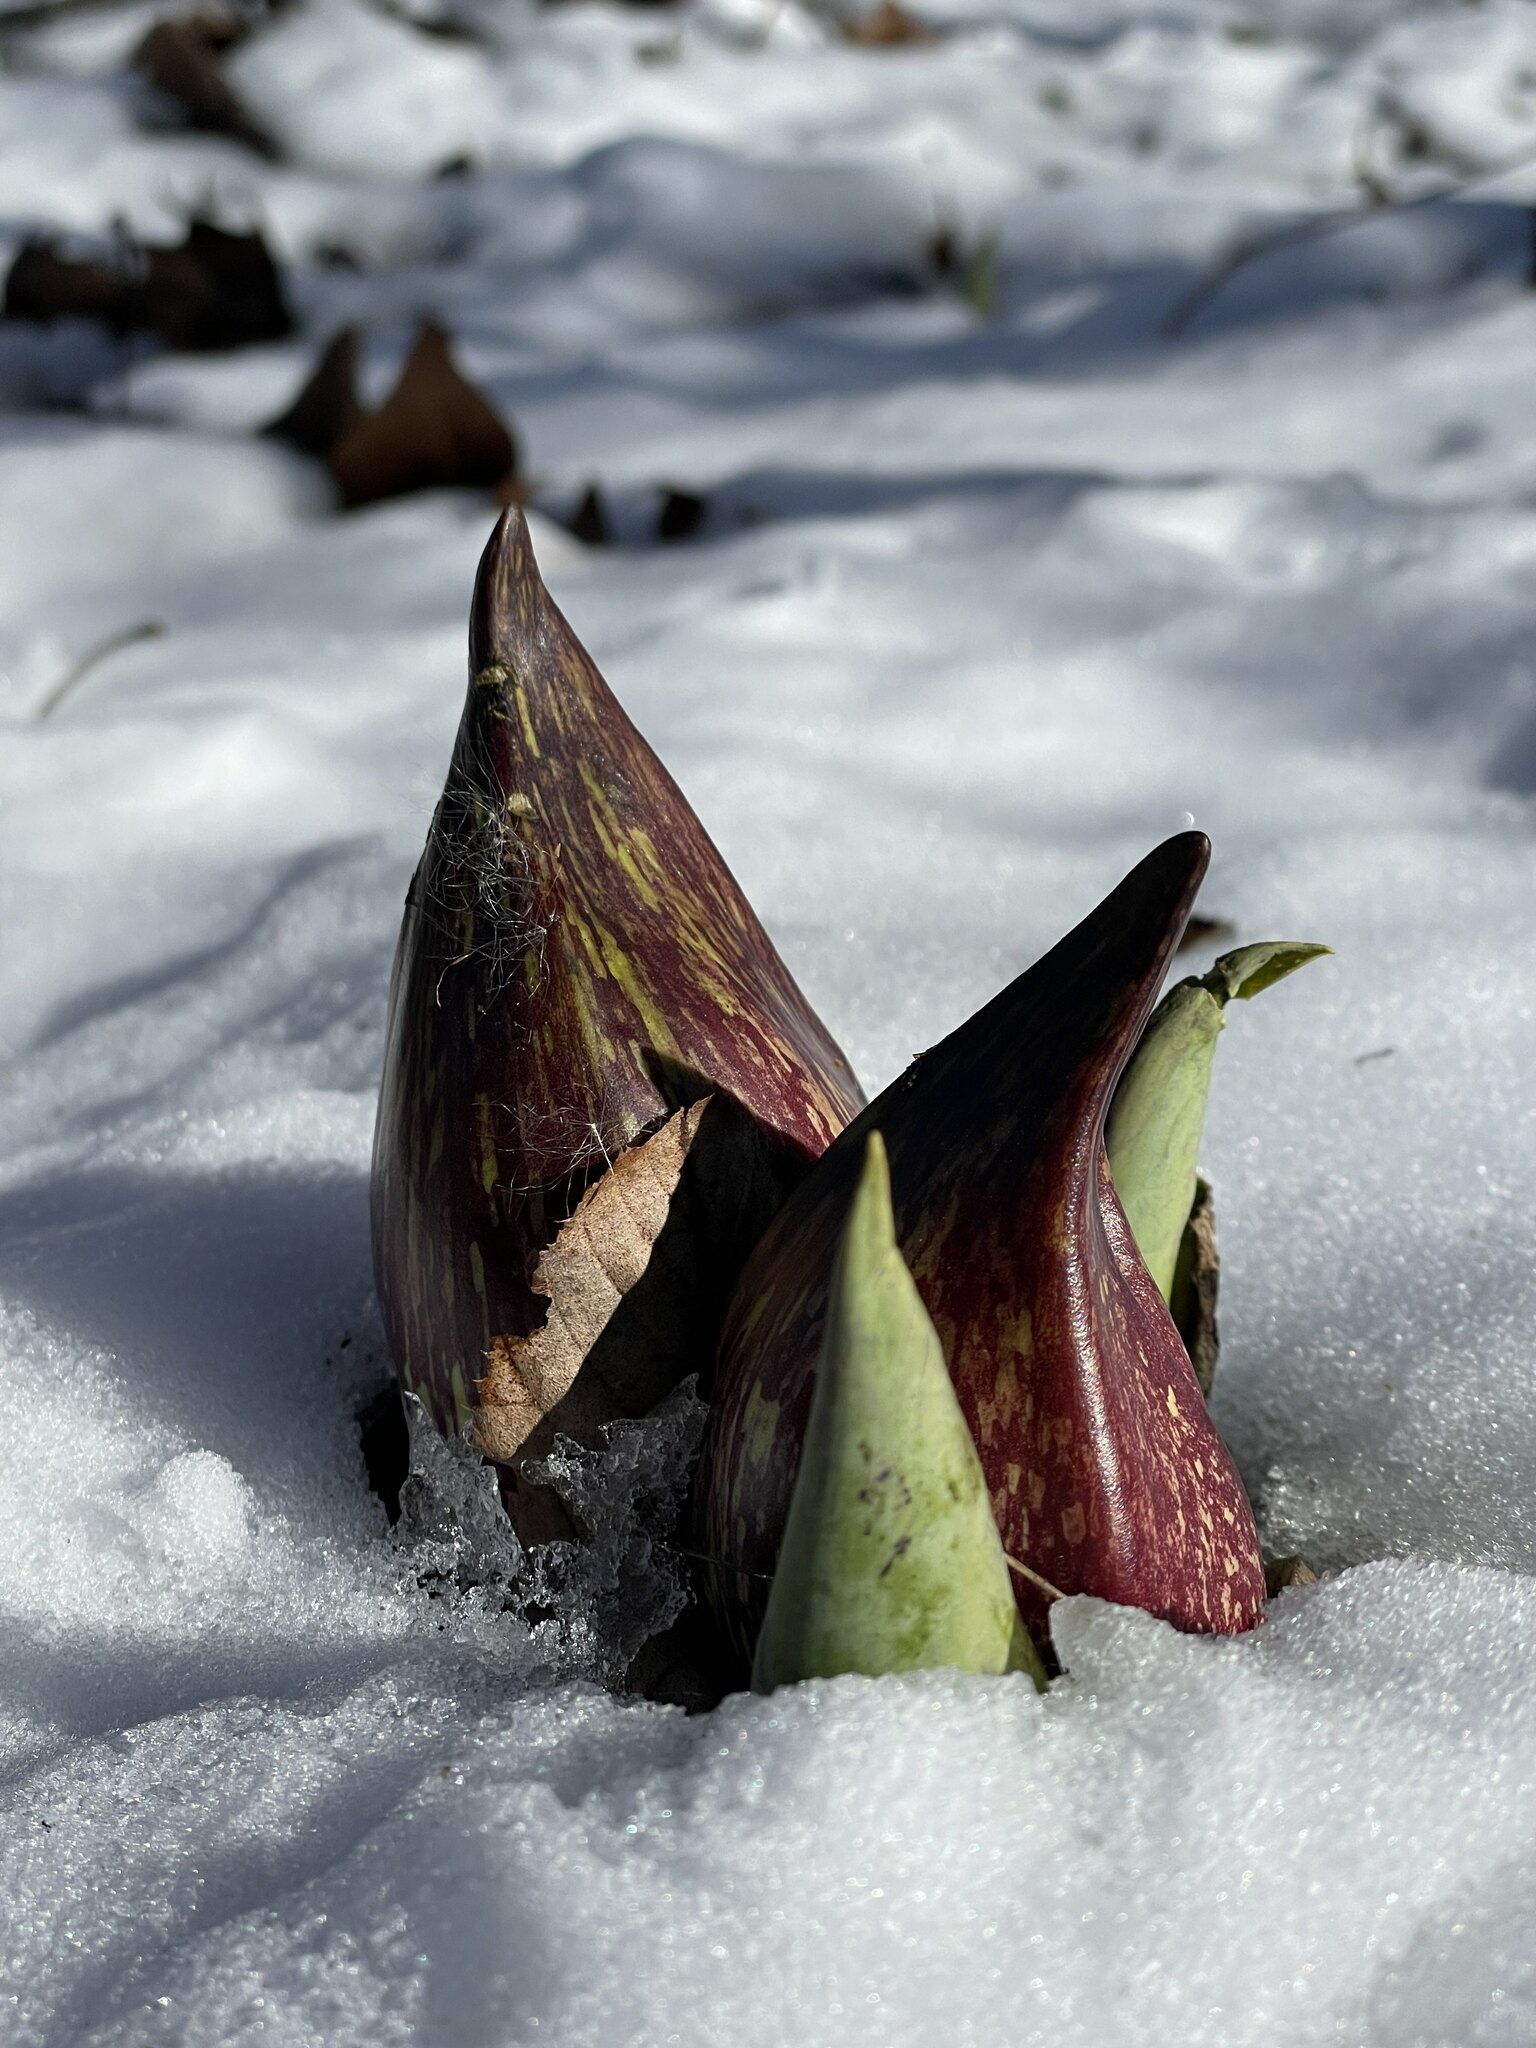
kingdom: Plantae
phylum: Tracheophyta
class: Liliopsida
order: Alismatales
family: Araceae
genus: Symplocarpus
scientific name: Symplocarpus foetidus
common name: Eastern skunk cabbage
